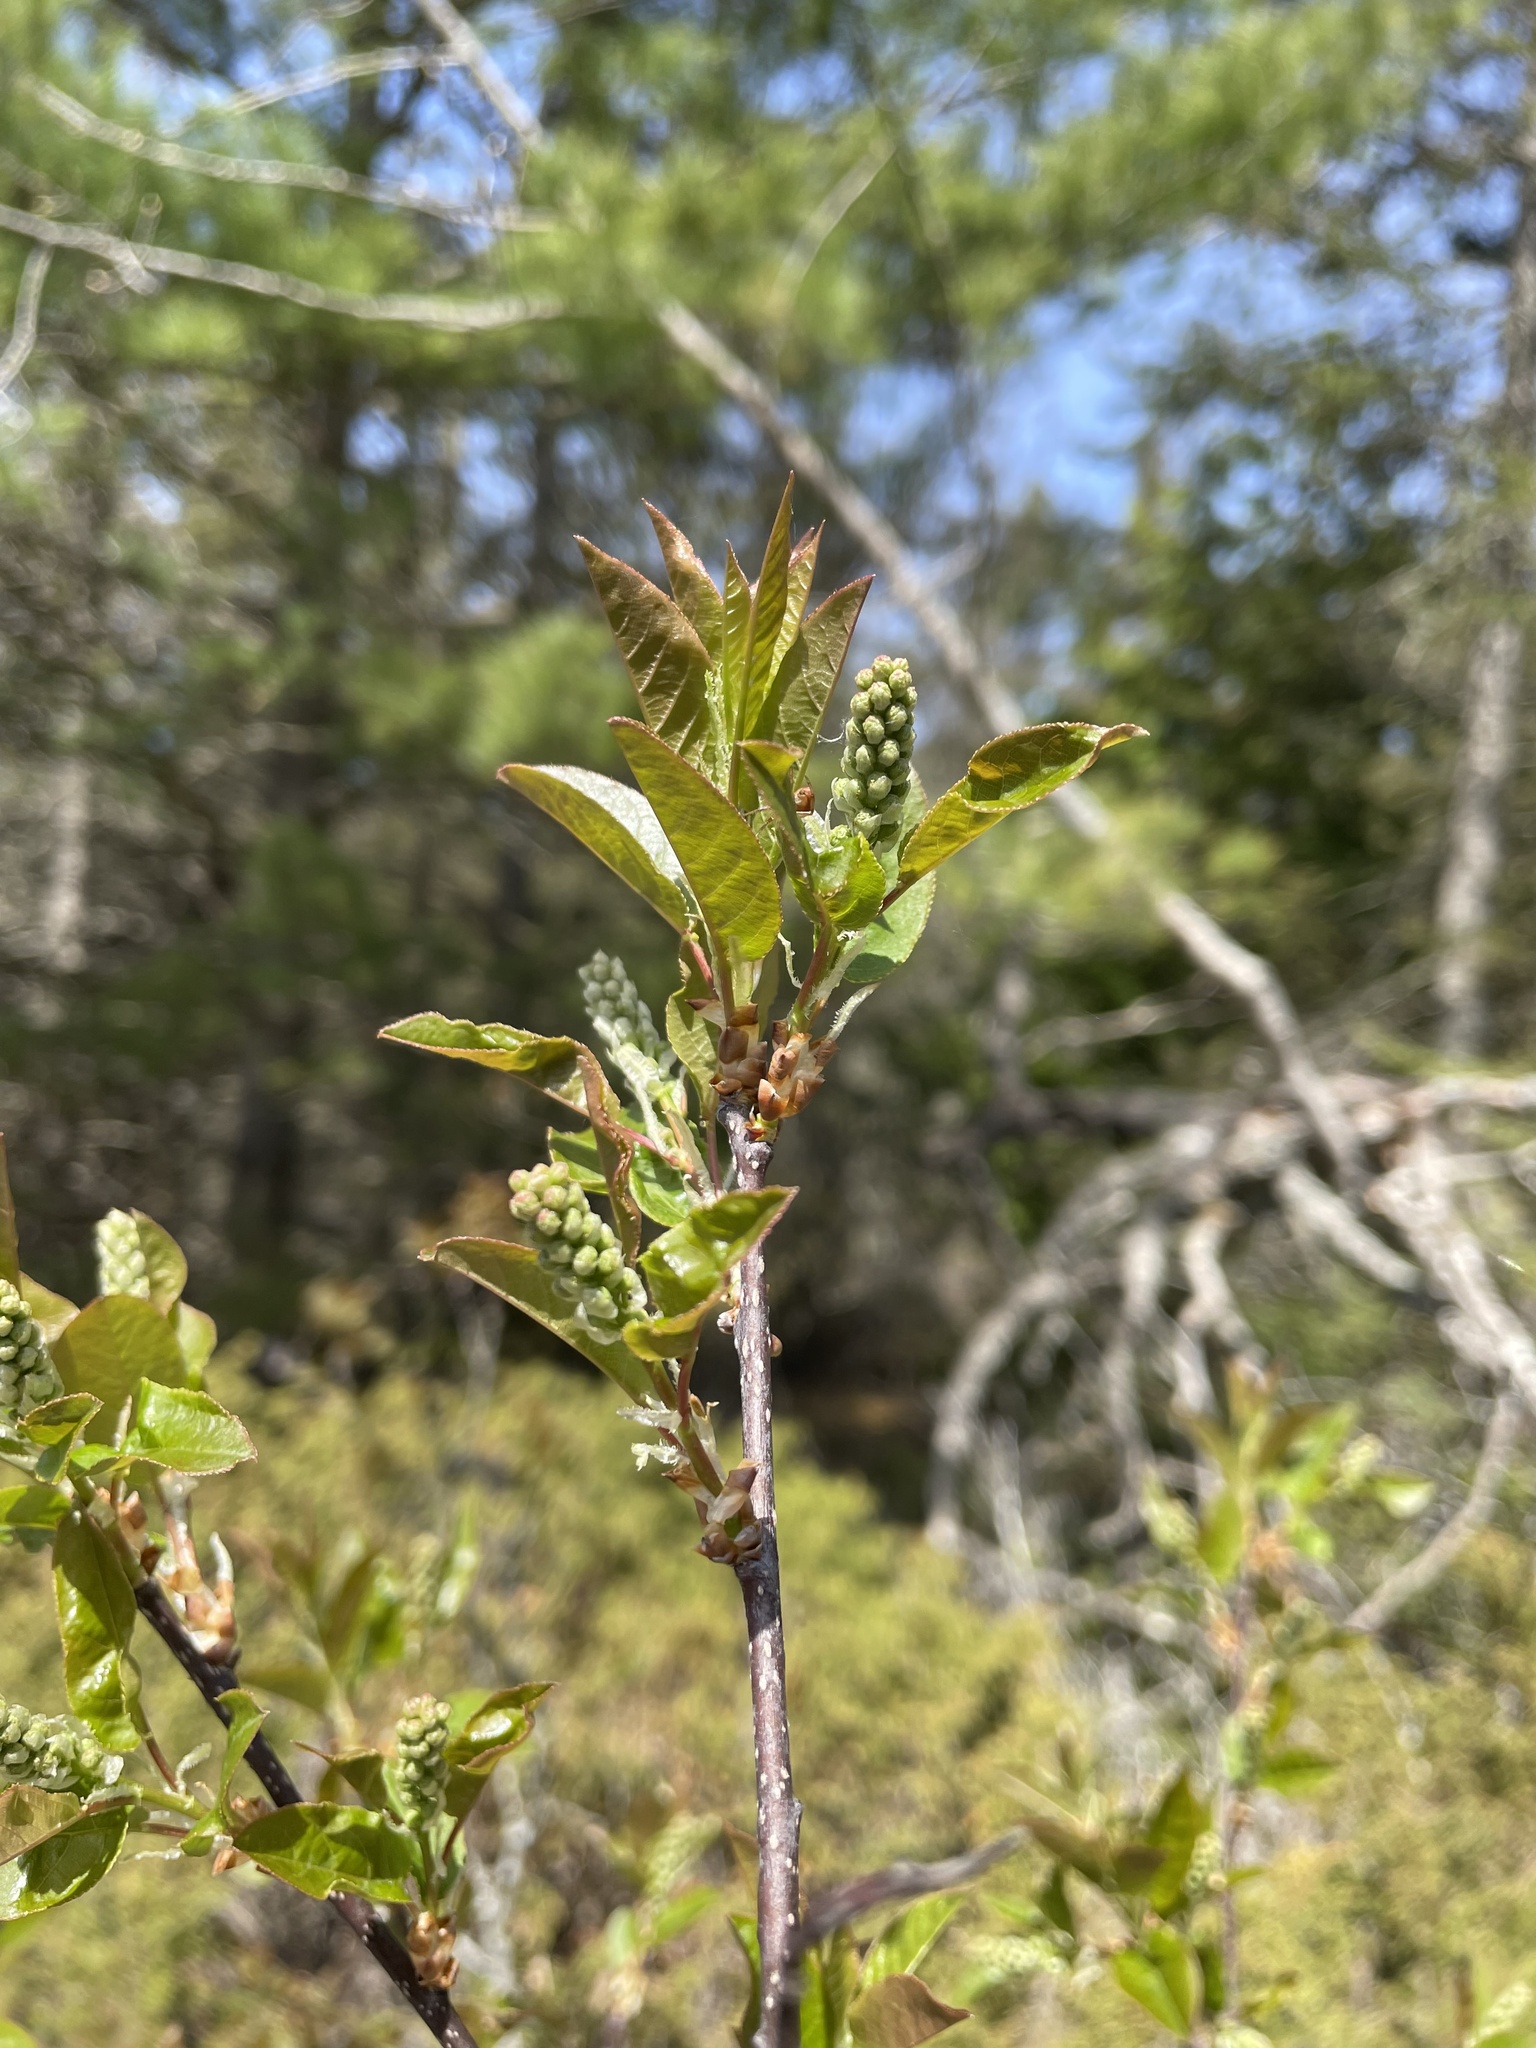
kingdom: Plantae
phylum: Tracheophyta
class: Magnoliopsida
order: Rosales
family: Rosaceae
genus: Prunus
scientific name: Prunus virginiana
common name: Chokecherry
